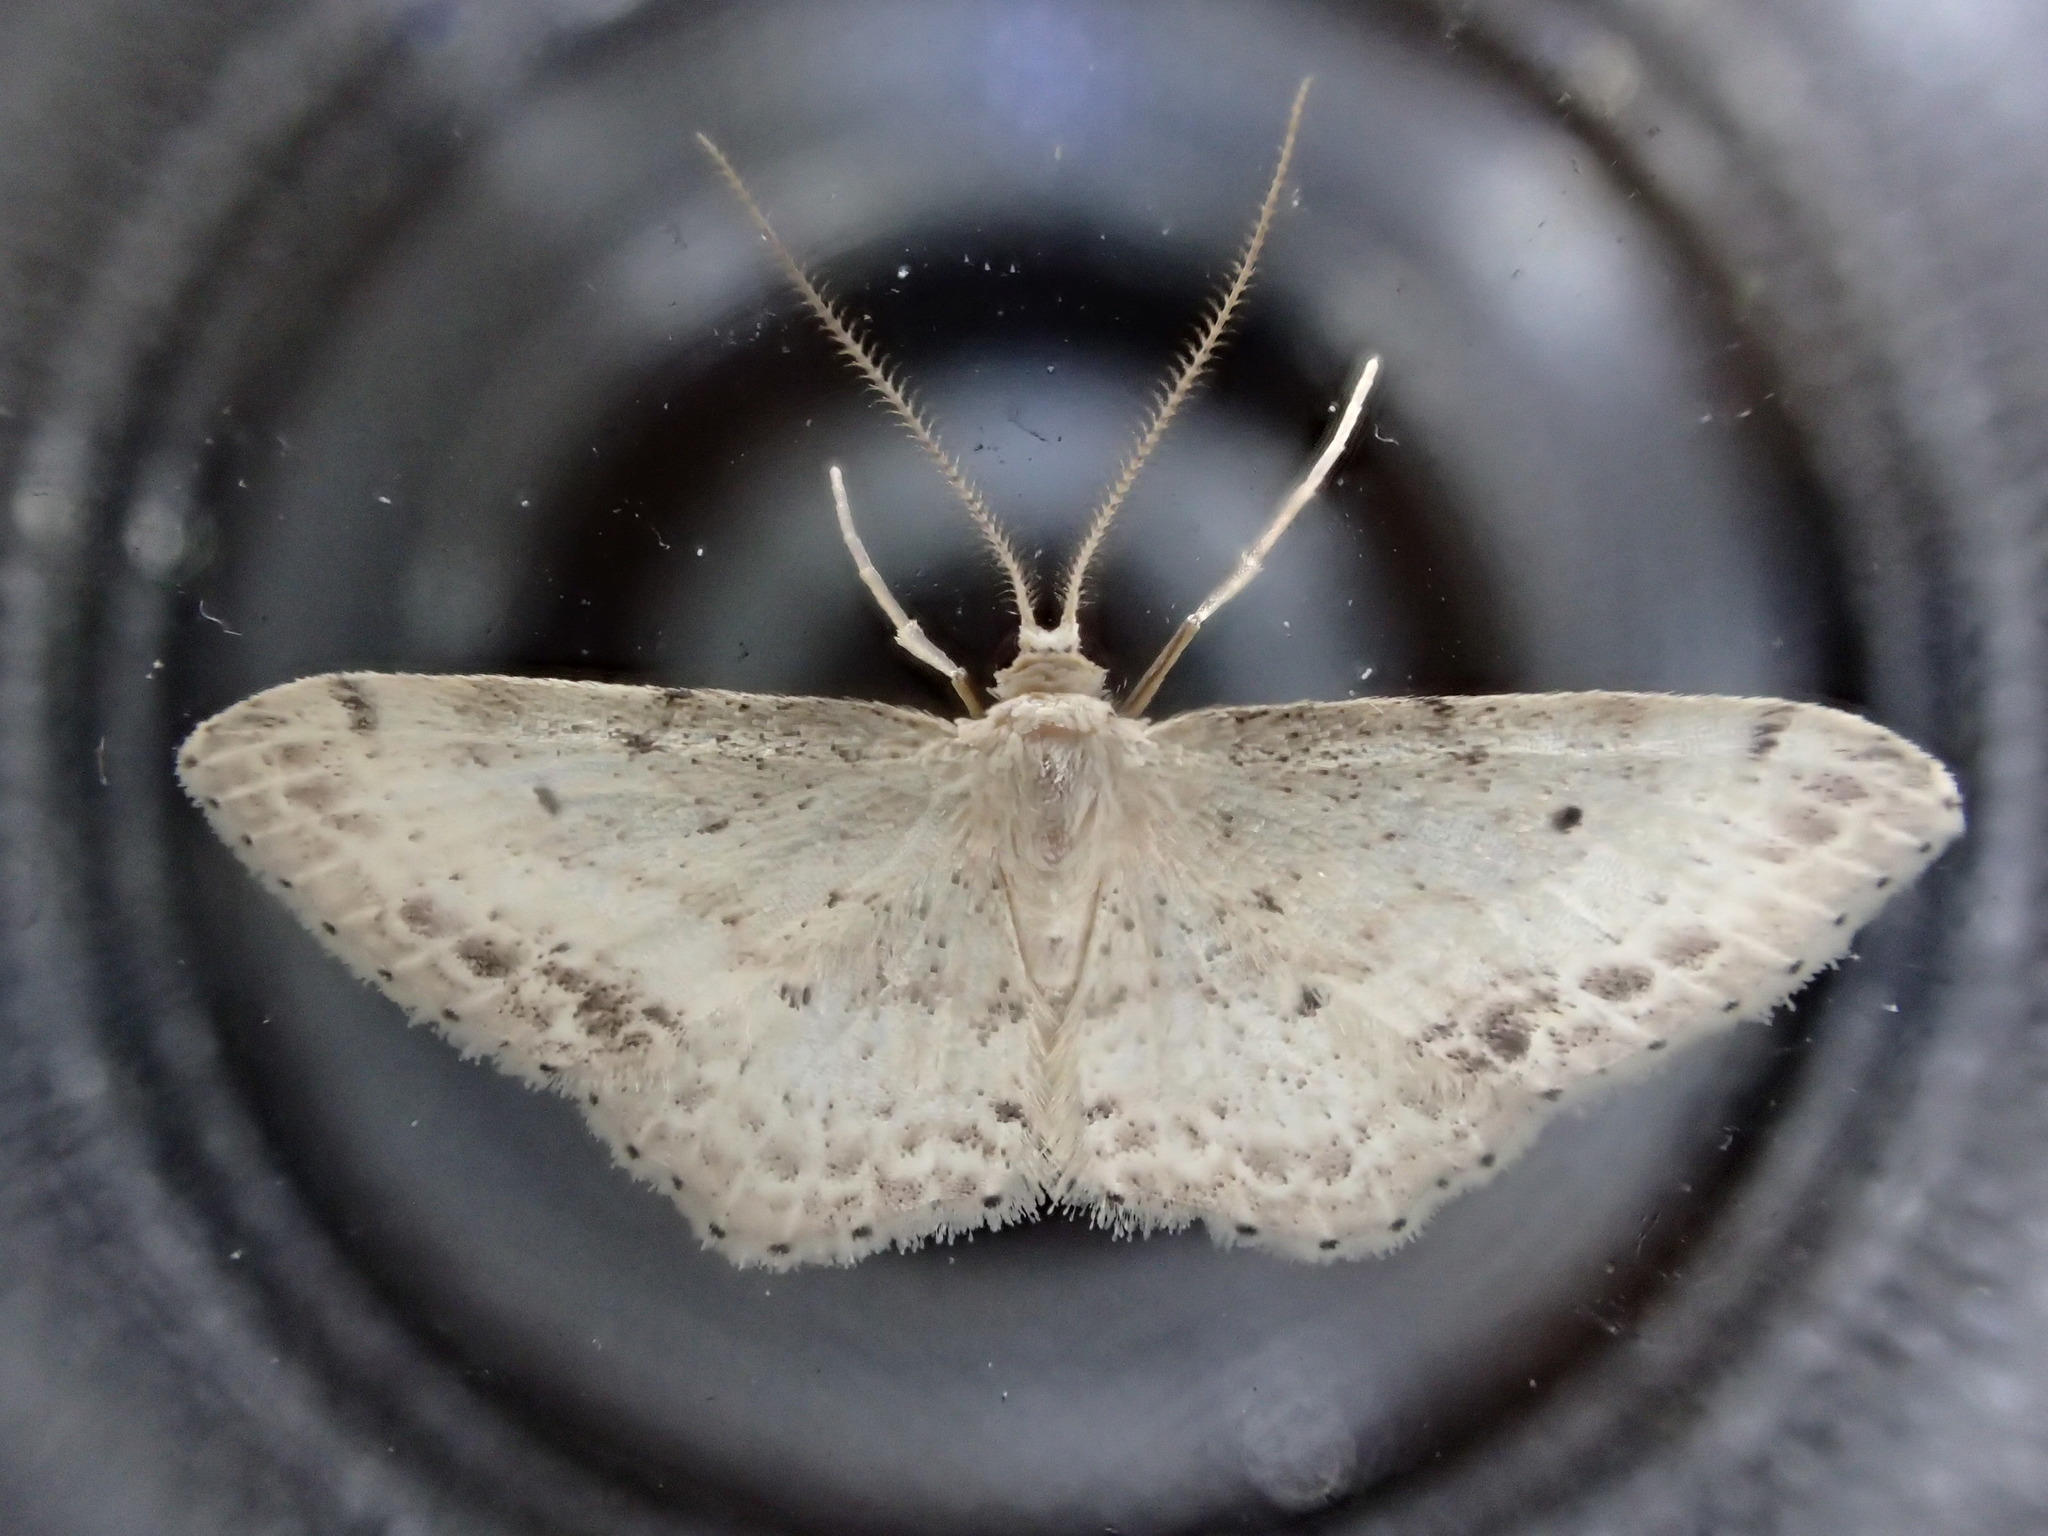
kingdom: Animalia
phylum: Arthropoda
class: Insecta
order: Lepidoptera
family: Geometridae
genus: Idaea
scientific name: Idaea dimidiata
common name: Single-dotted wave
